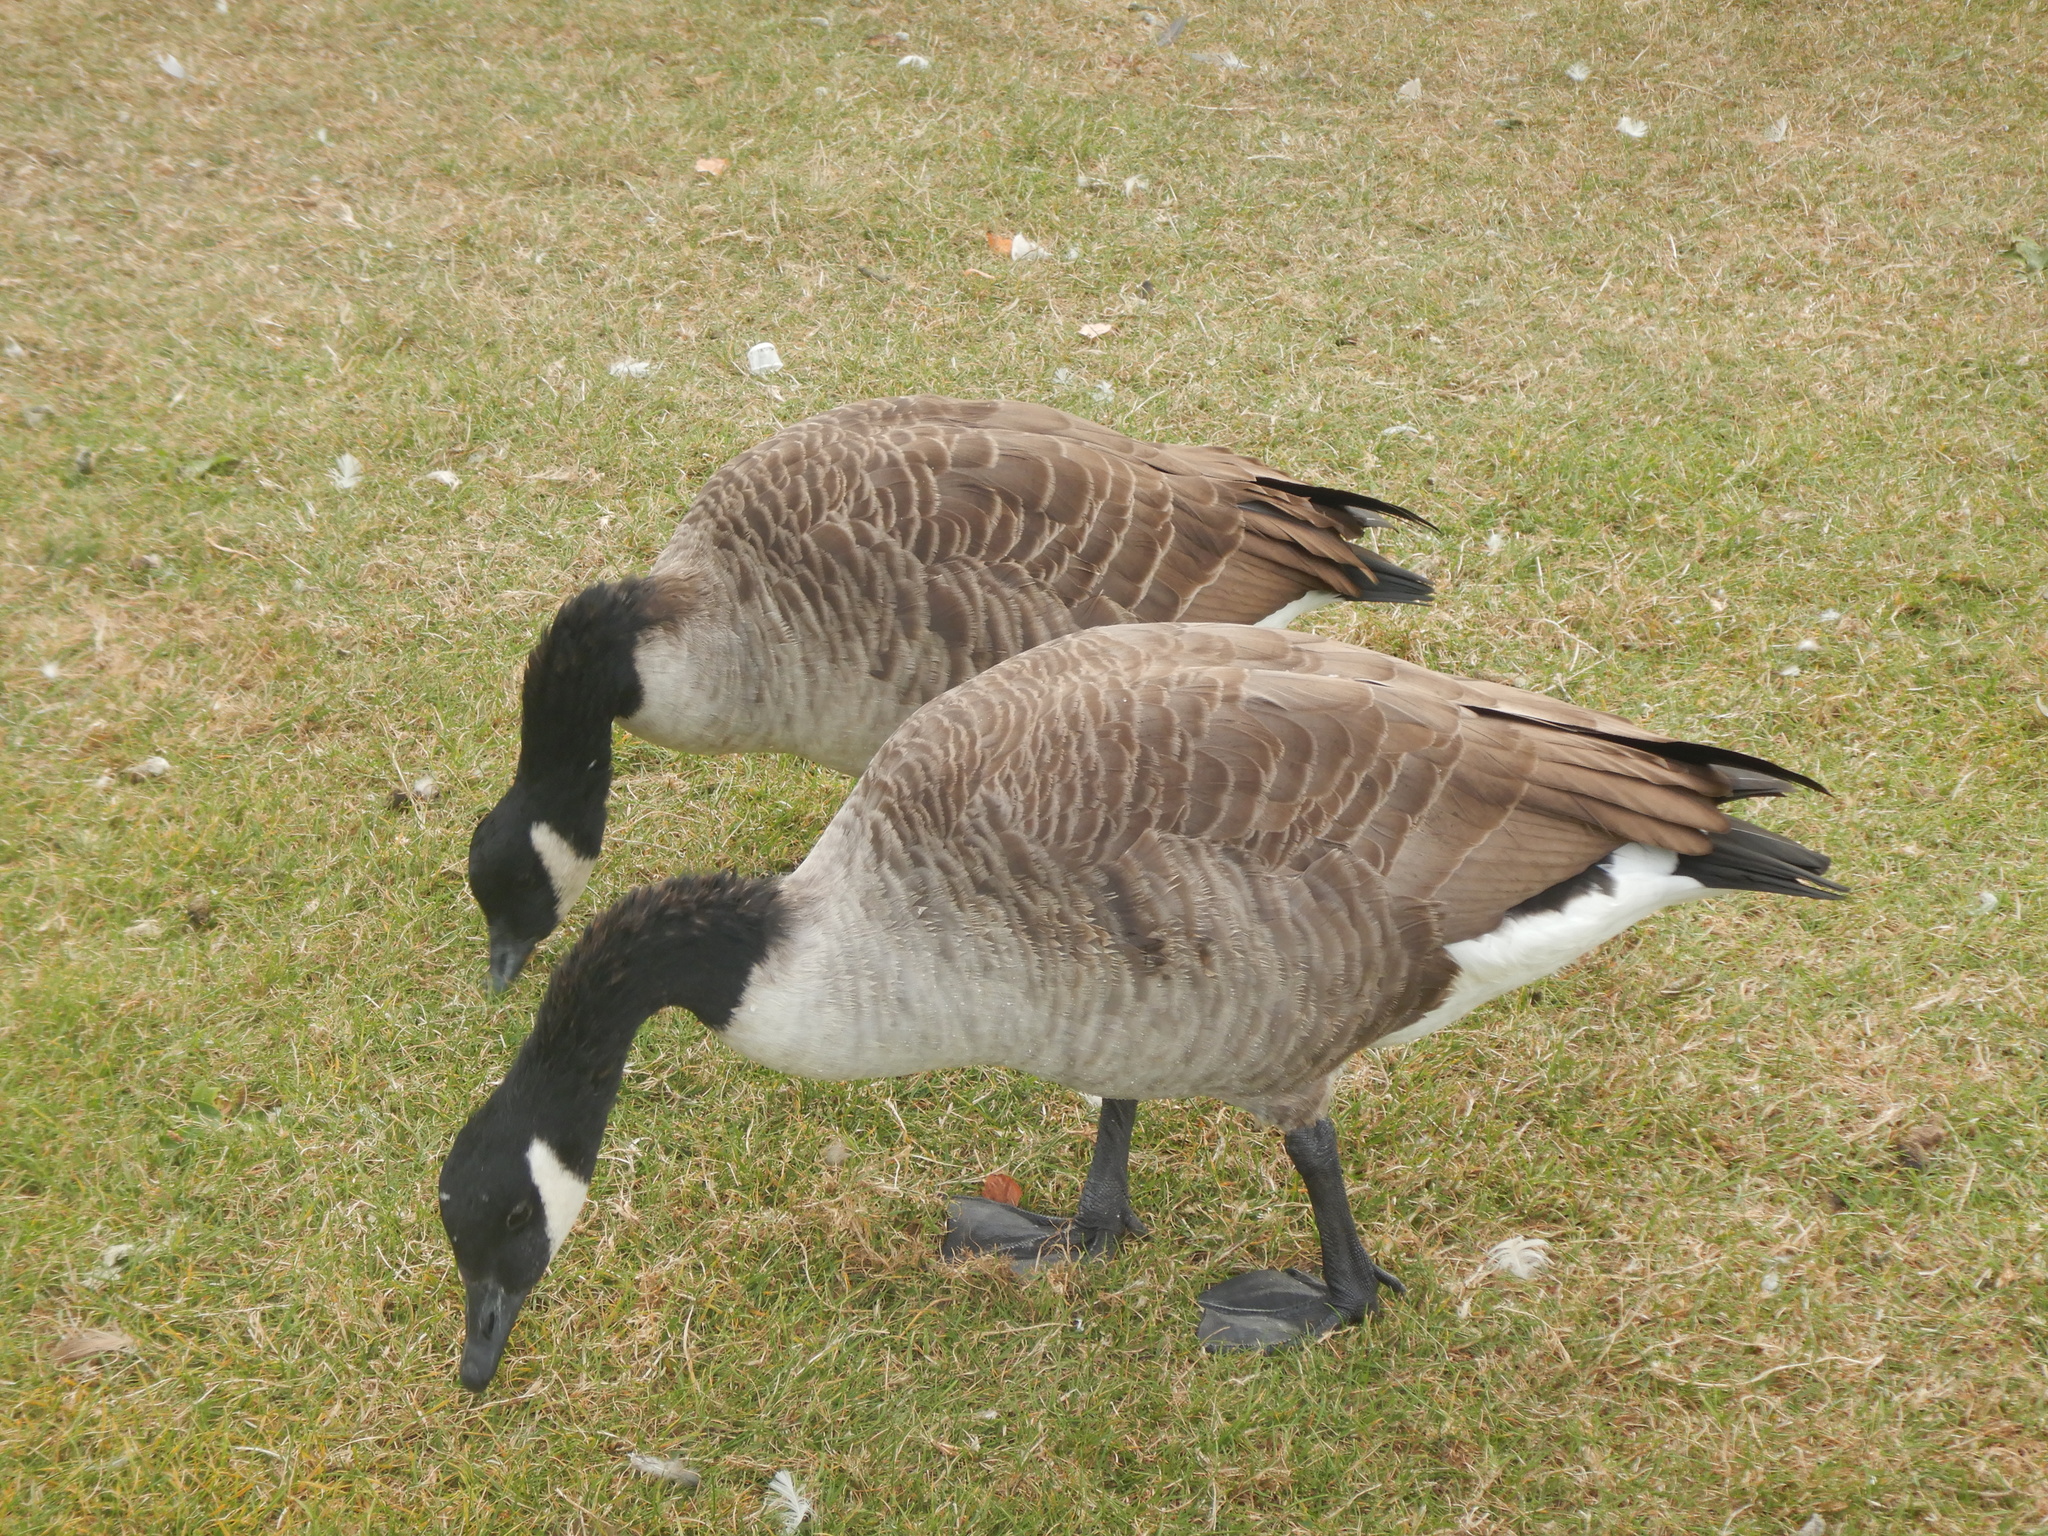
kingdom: Animalia
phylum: Chordata
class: Aves
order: Anseriformes
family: Anatidae
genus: Branta
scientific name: Branta canadensis
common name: Canada goose
